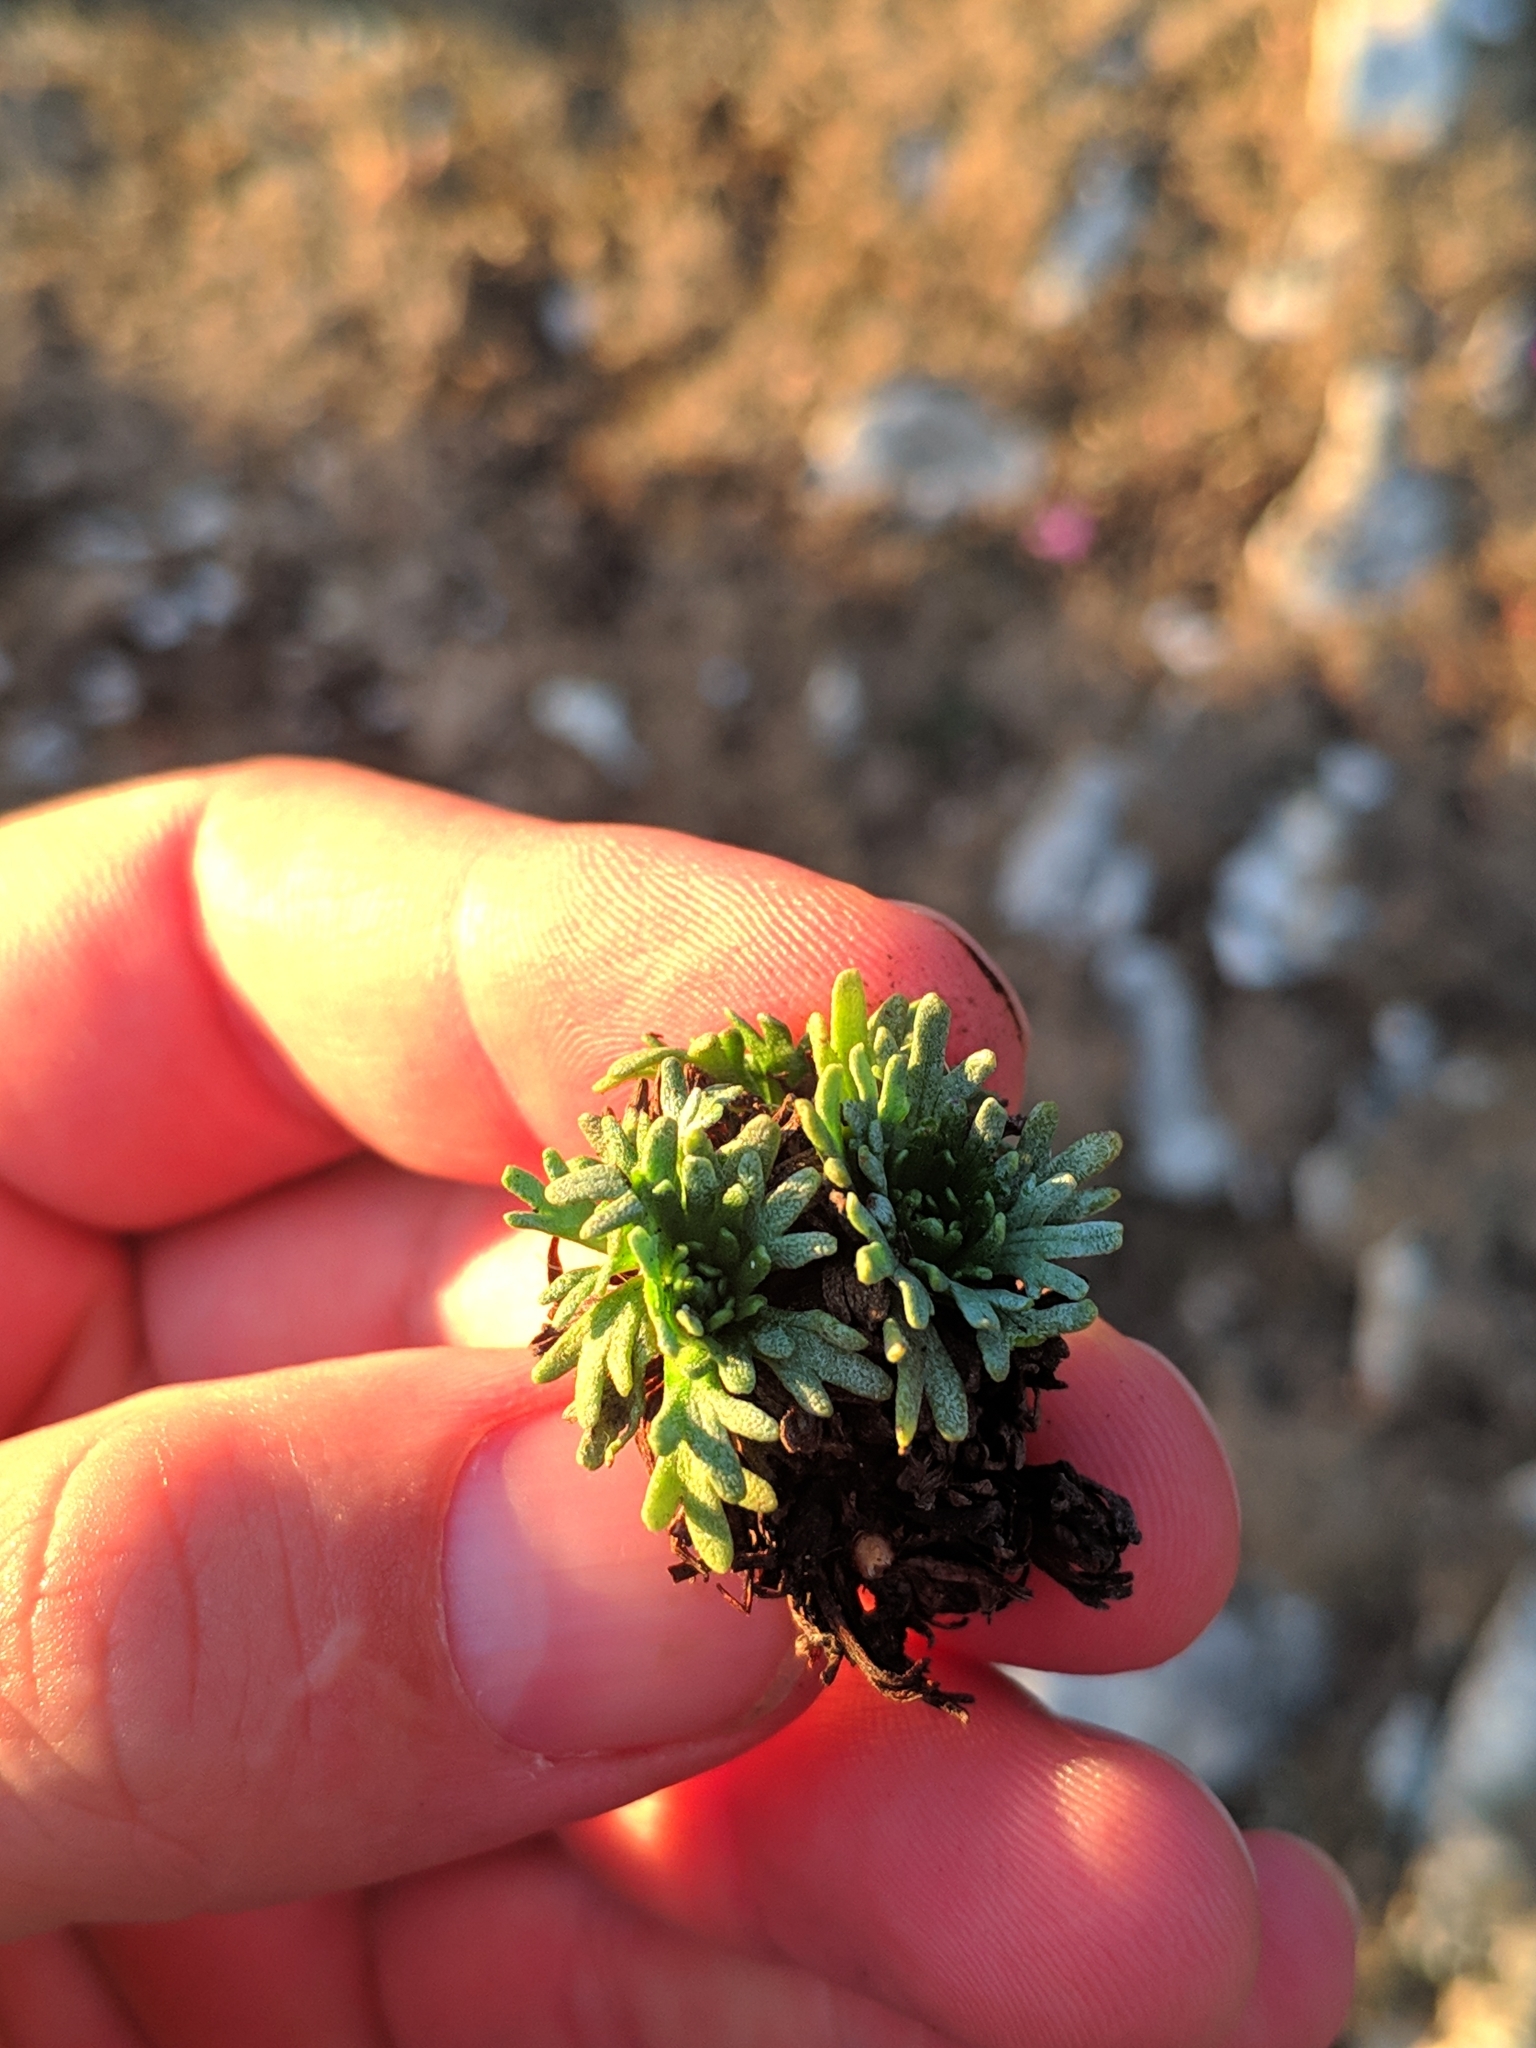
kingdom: Plantae
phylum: Tracheophyta
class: Magnoliopsida
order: Saxifragales
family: Saxifragaceae
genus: Saxifraga
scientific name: Saxifraga losae
